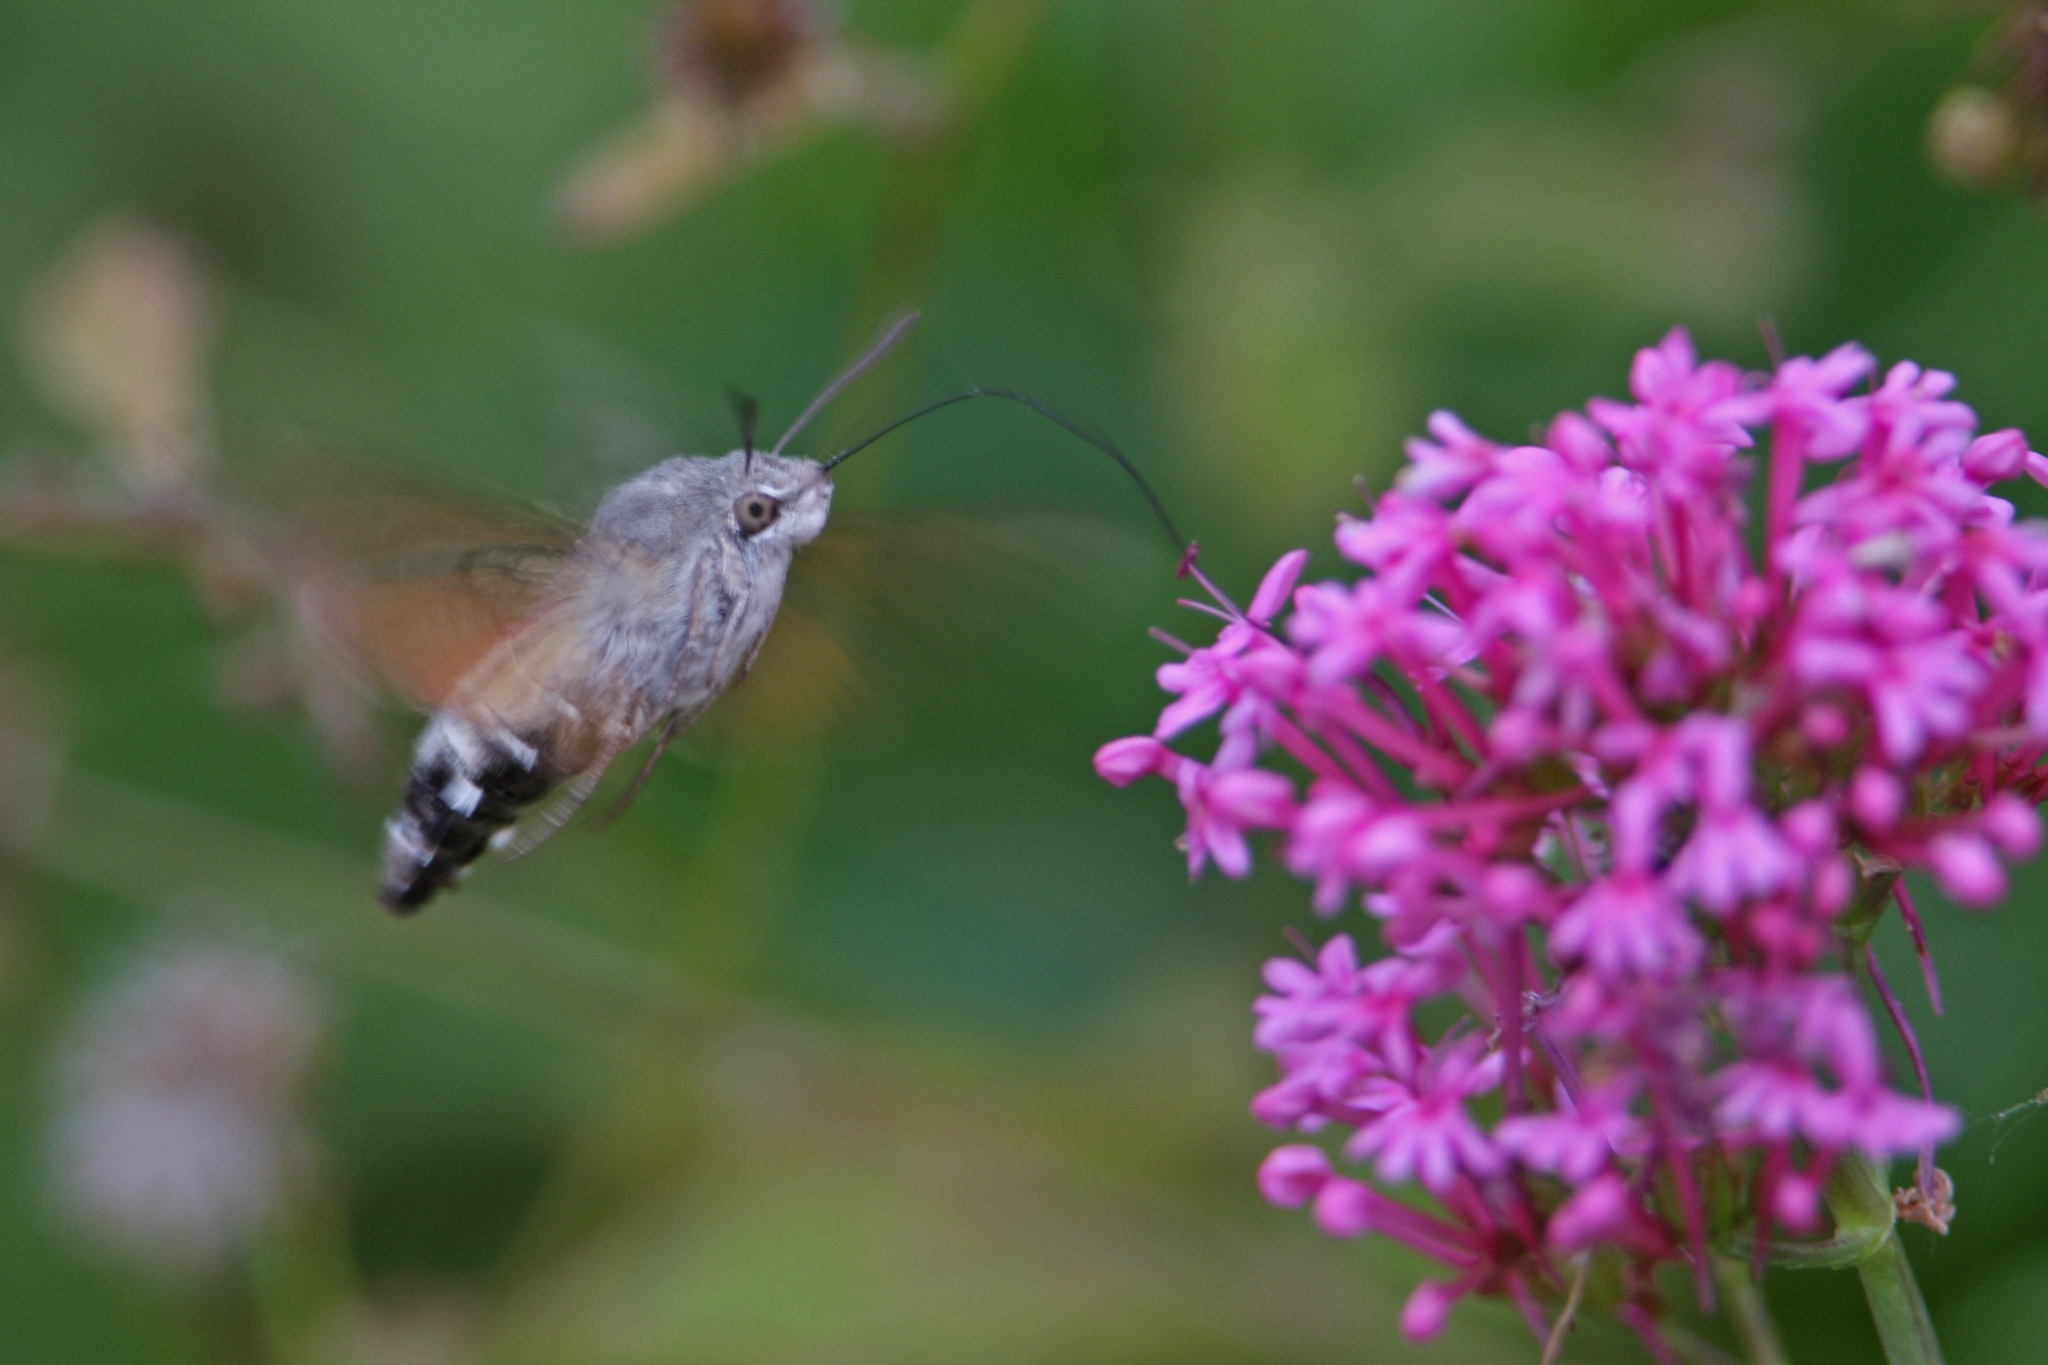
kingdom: Animalia
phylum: Arthropoda
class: Insecta
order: Lepidoptera
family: Sphingidae
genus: Macroglossum
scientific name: Macroglossum stellatarum
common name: Humming-bird hawk-moth
